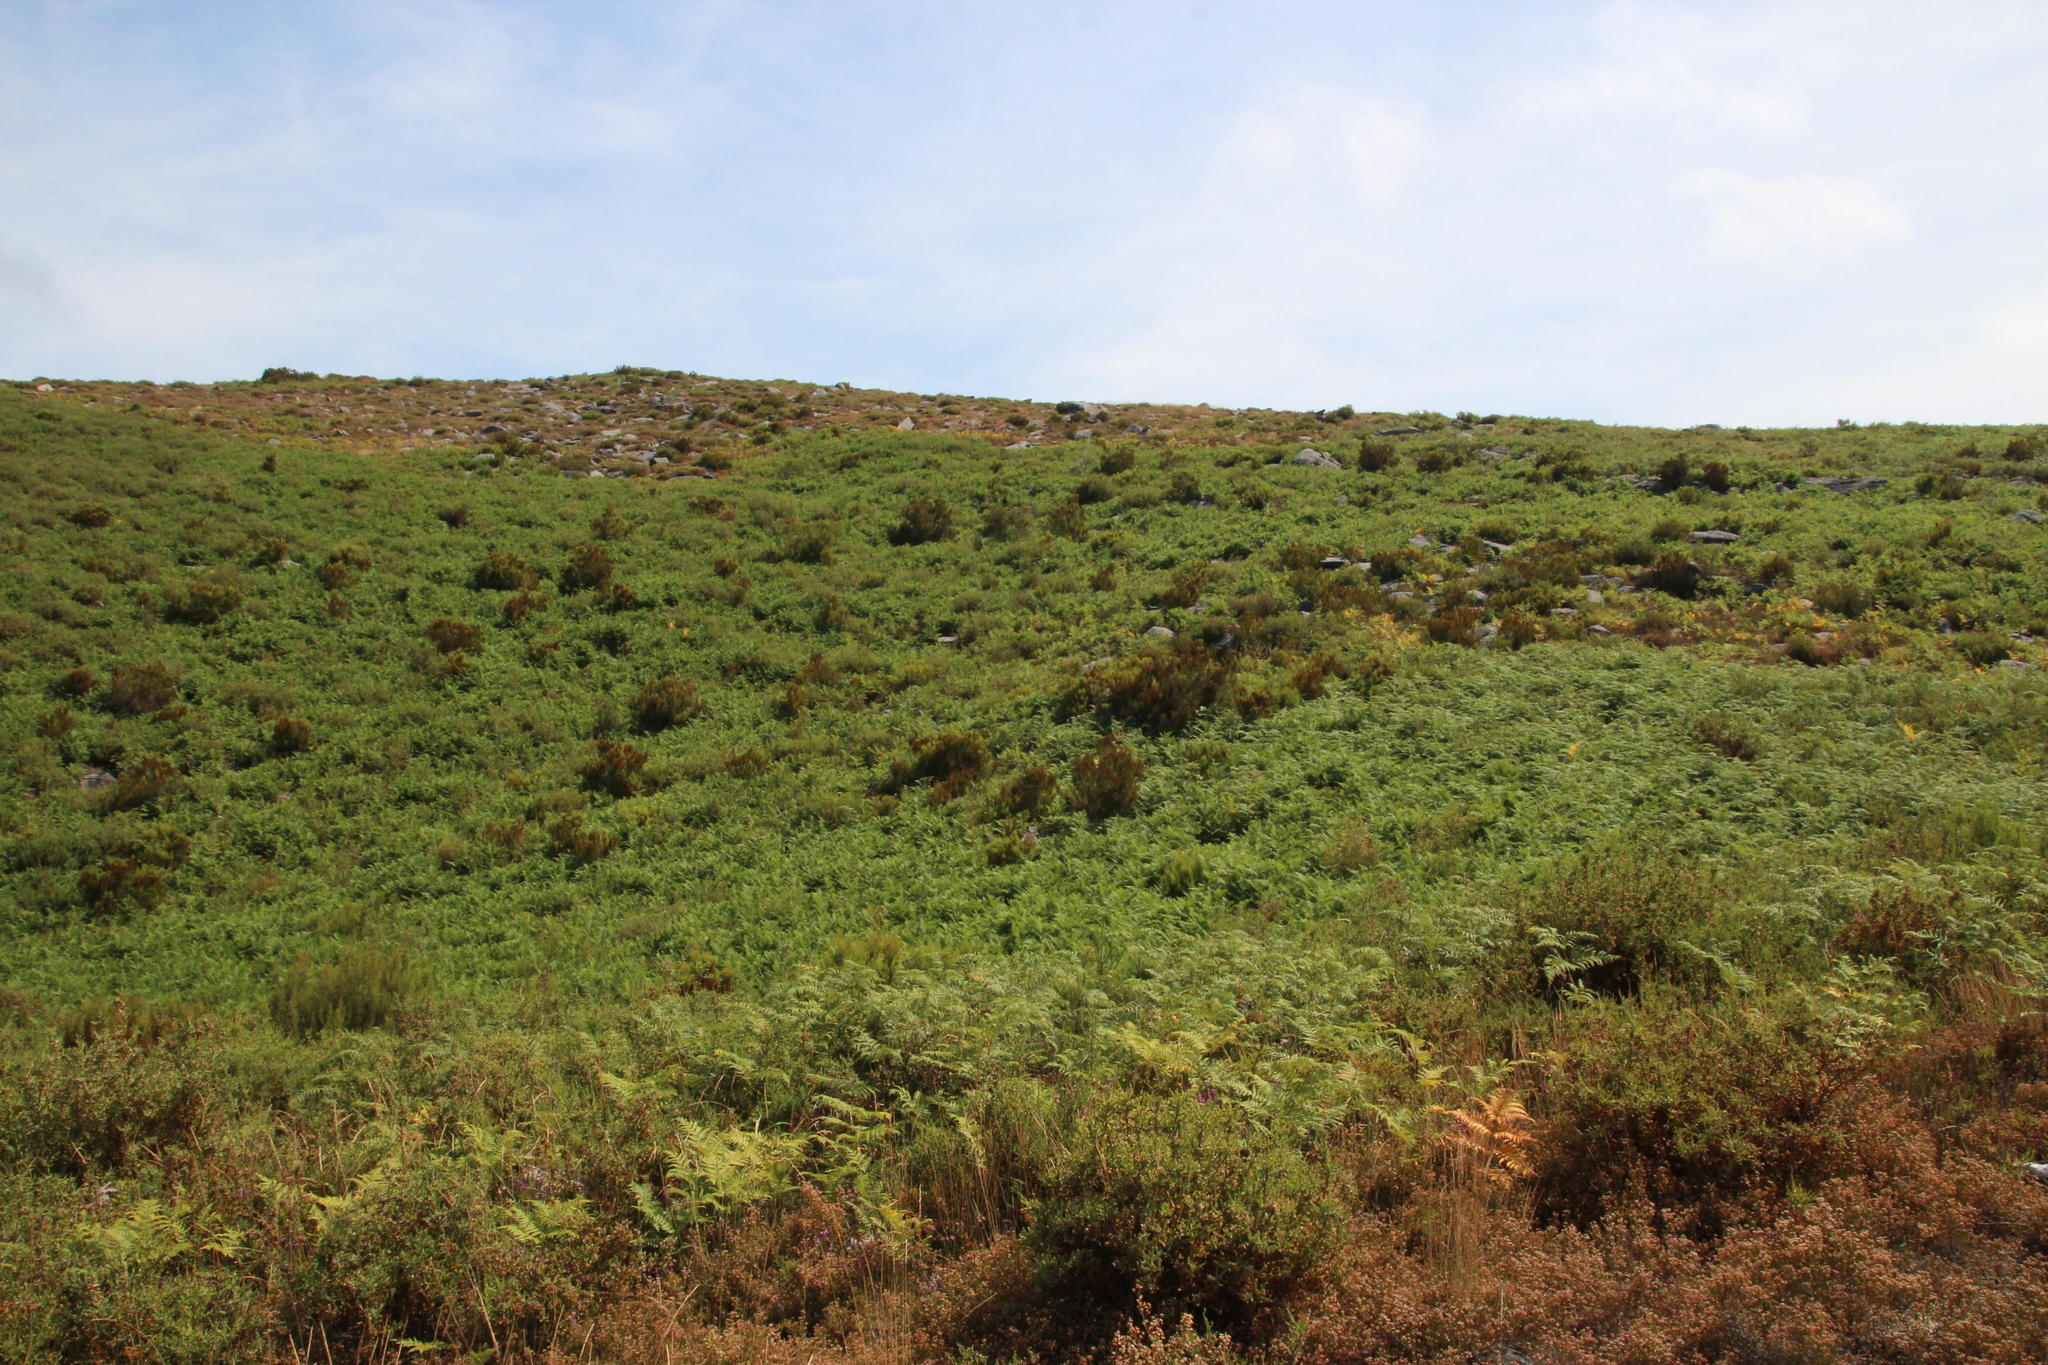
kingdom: Plantae
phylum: Tracheophyta
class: Polypodiopsida
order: Polypodiales
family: Dennstaedtiaceae
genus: Pteridium
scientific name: Pteridium aquilinum
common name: Bracken
